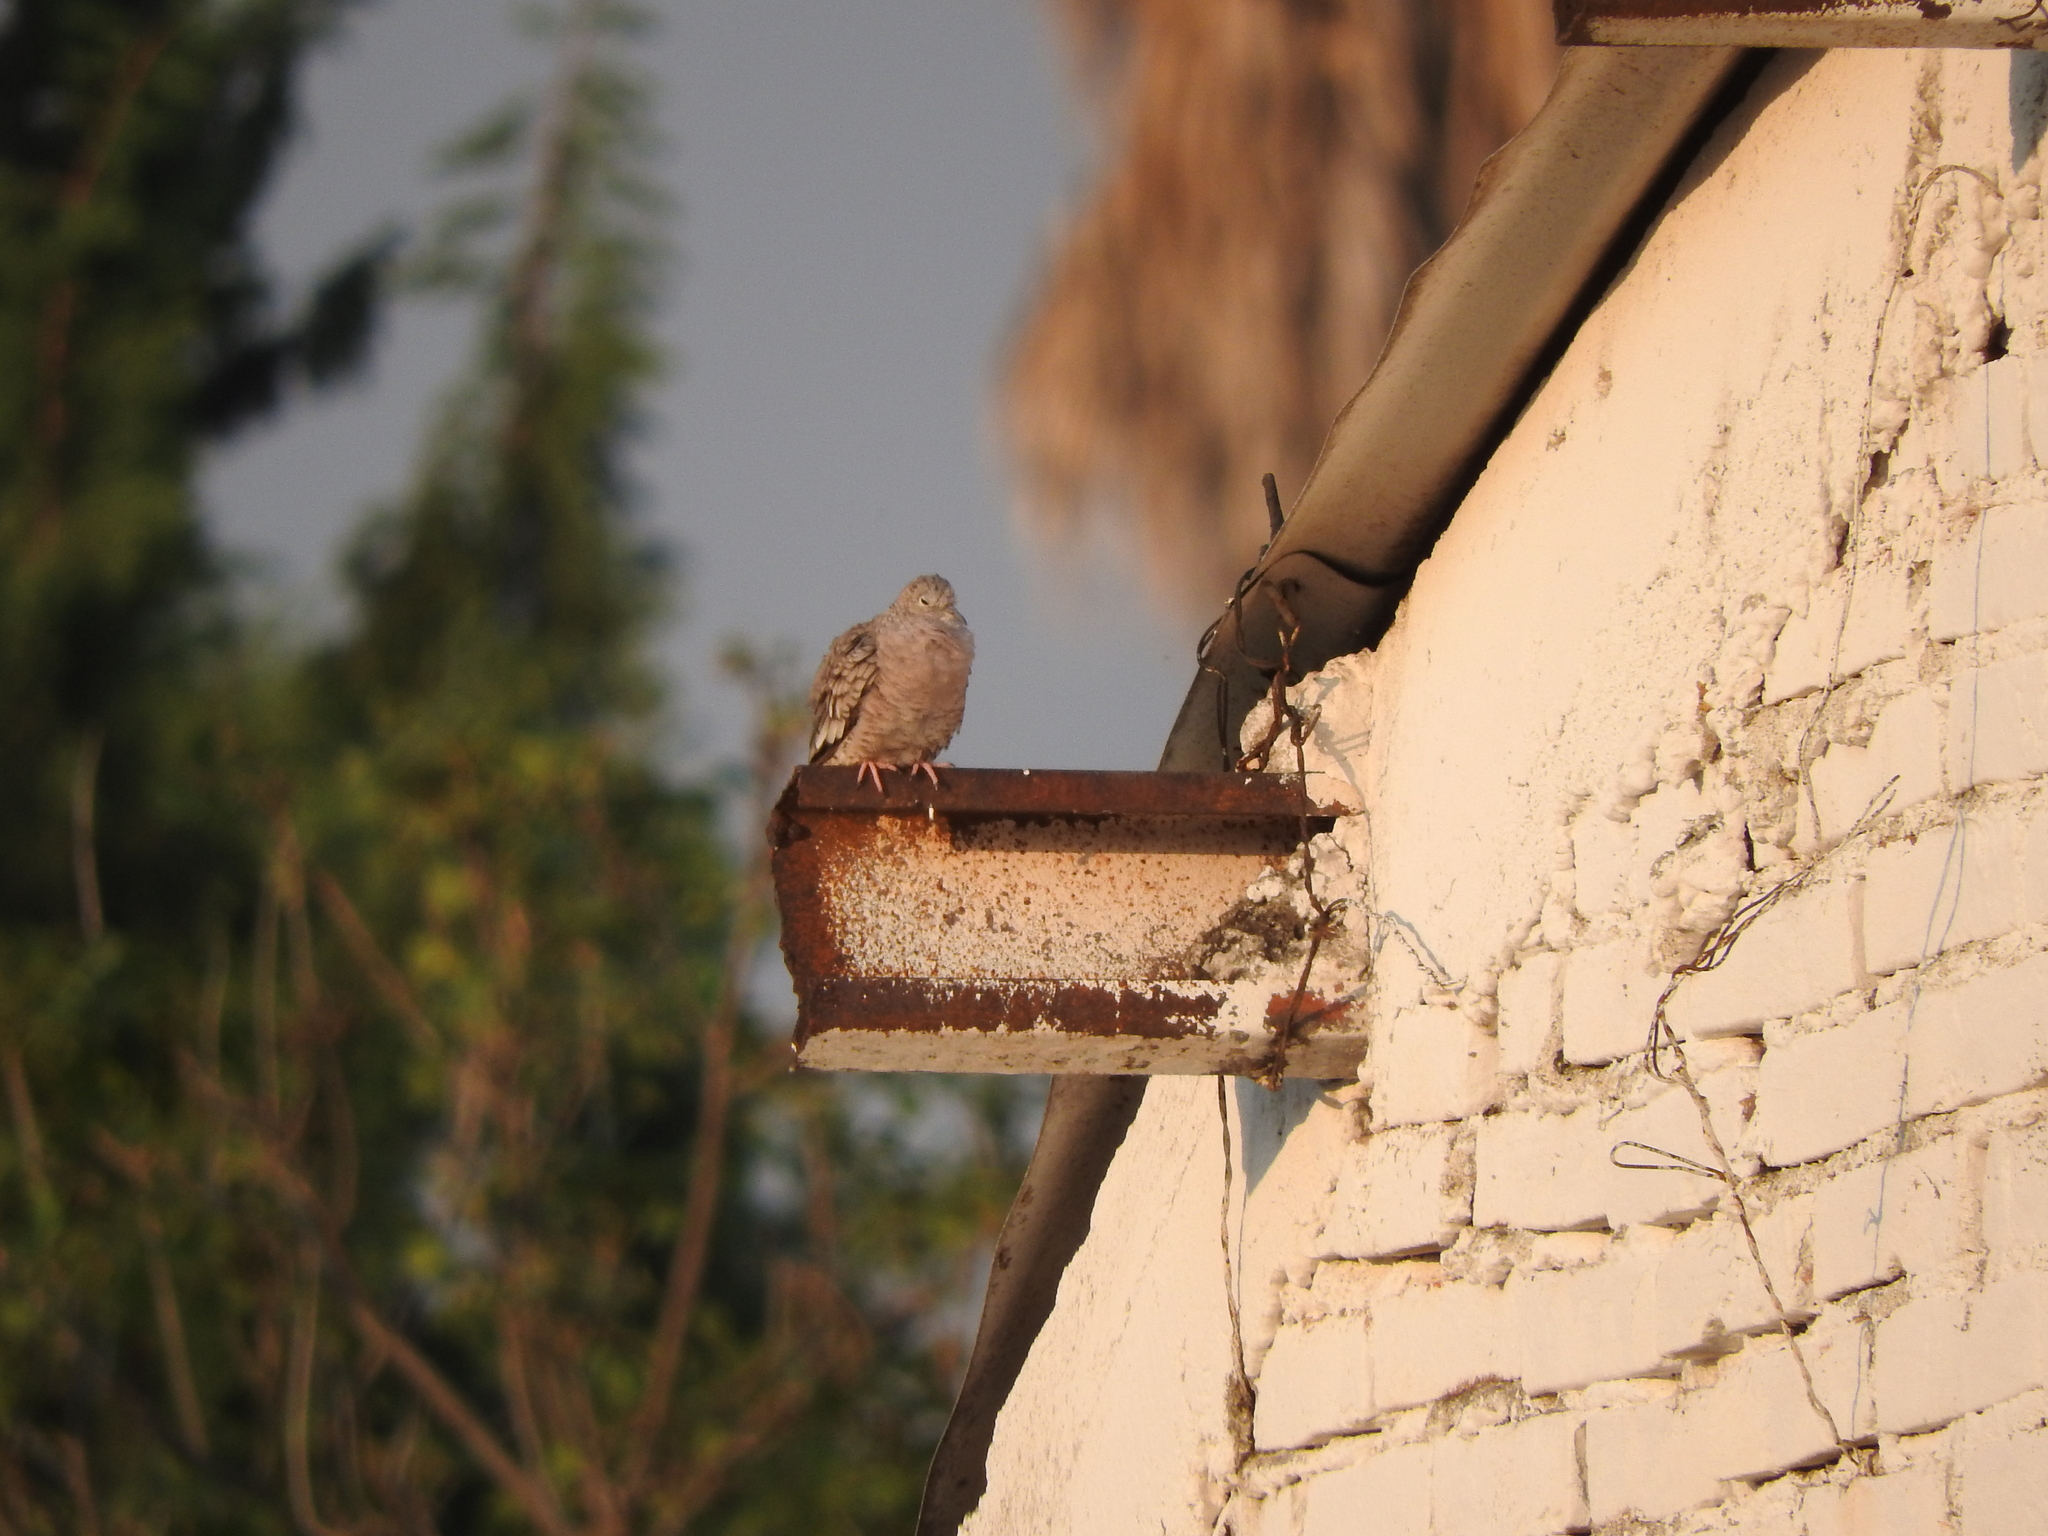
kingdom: Animalia
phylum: Chordata
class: Aves
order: Columbiformes
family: Columbidae
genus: Columbina
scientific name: Columbina inca
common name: Inca dove
